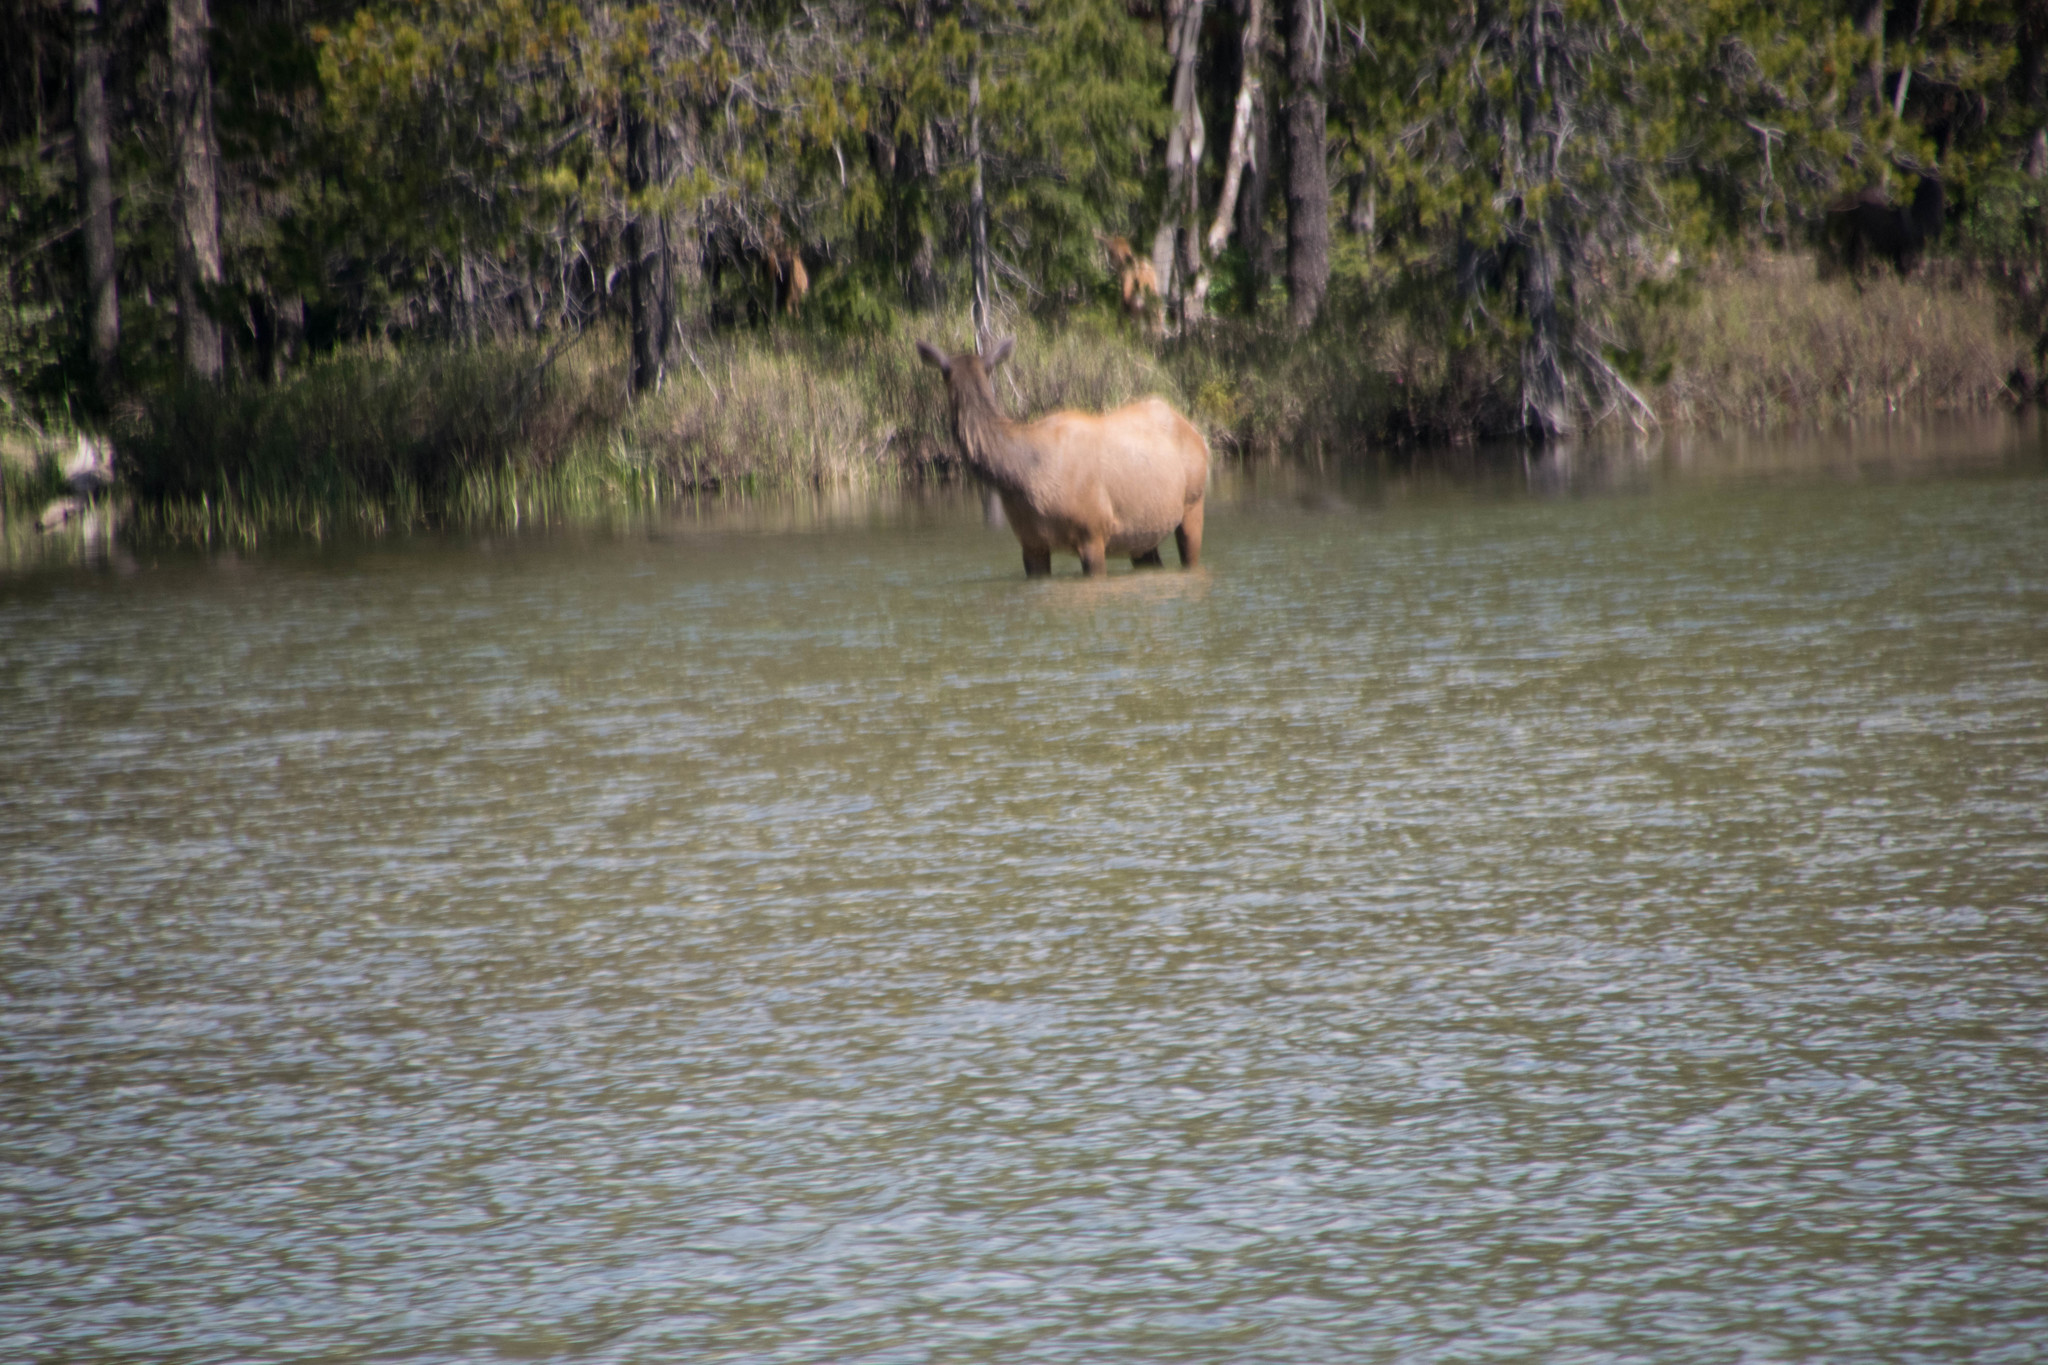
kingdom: Animalia
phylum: Chordata
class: Mammalia
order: Artiodactyla
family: Cervidae
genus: Cervus
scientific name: Cervus elaphus
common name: Red deer
